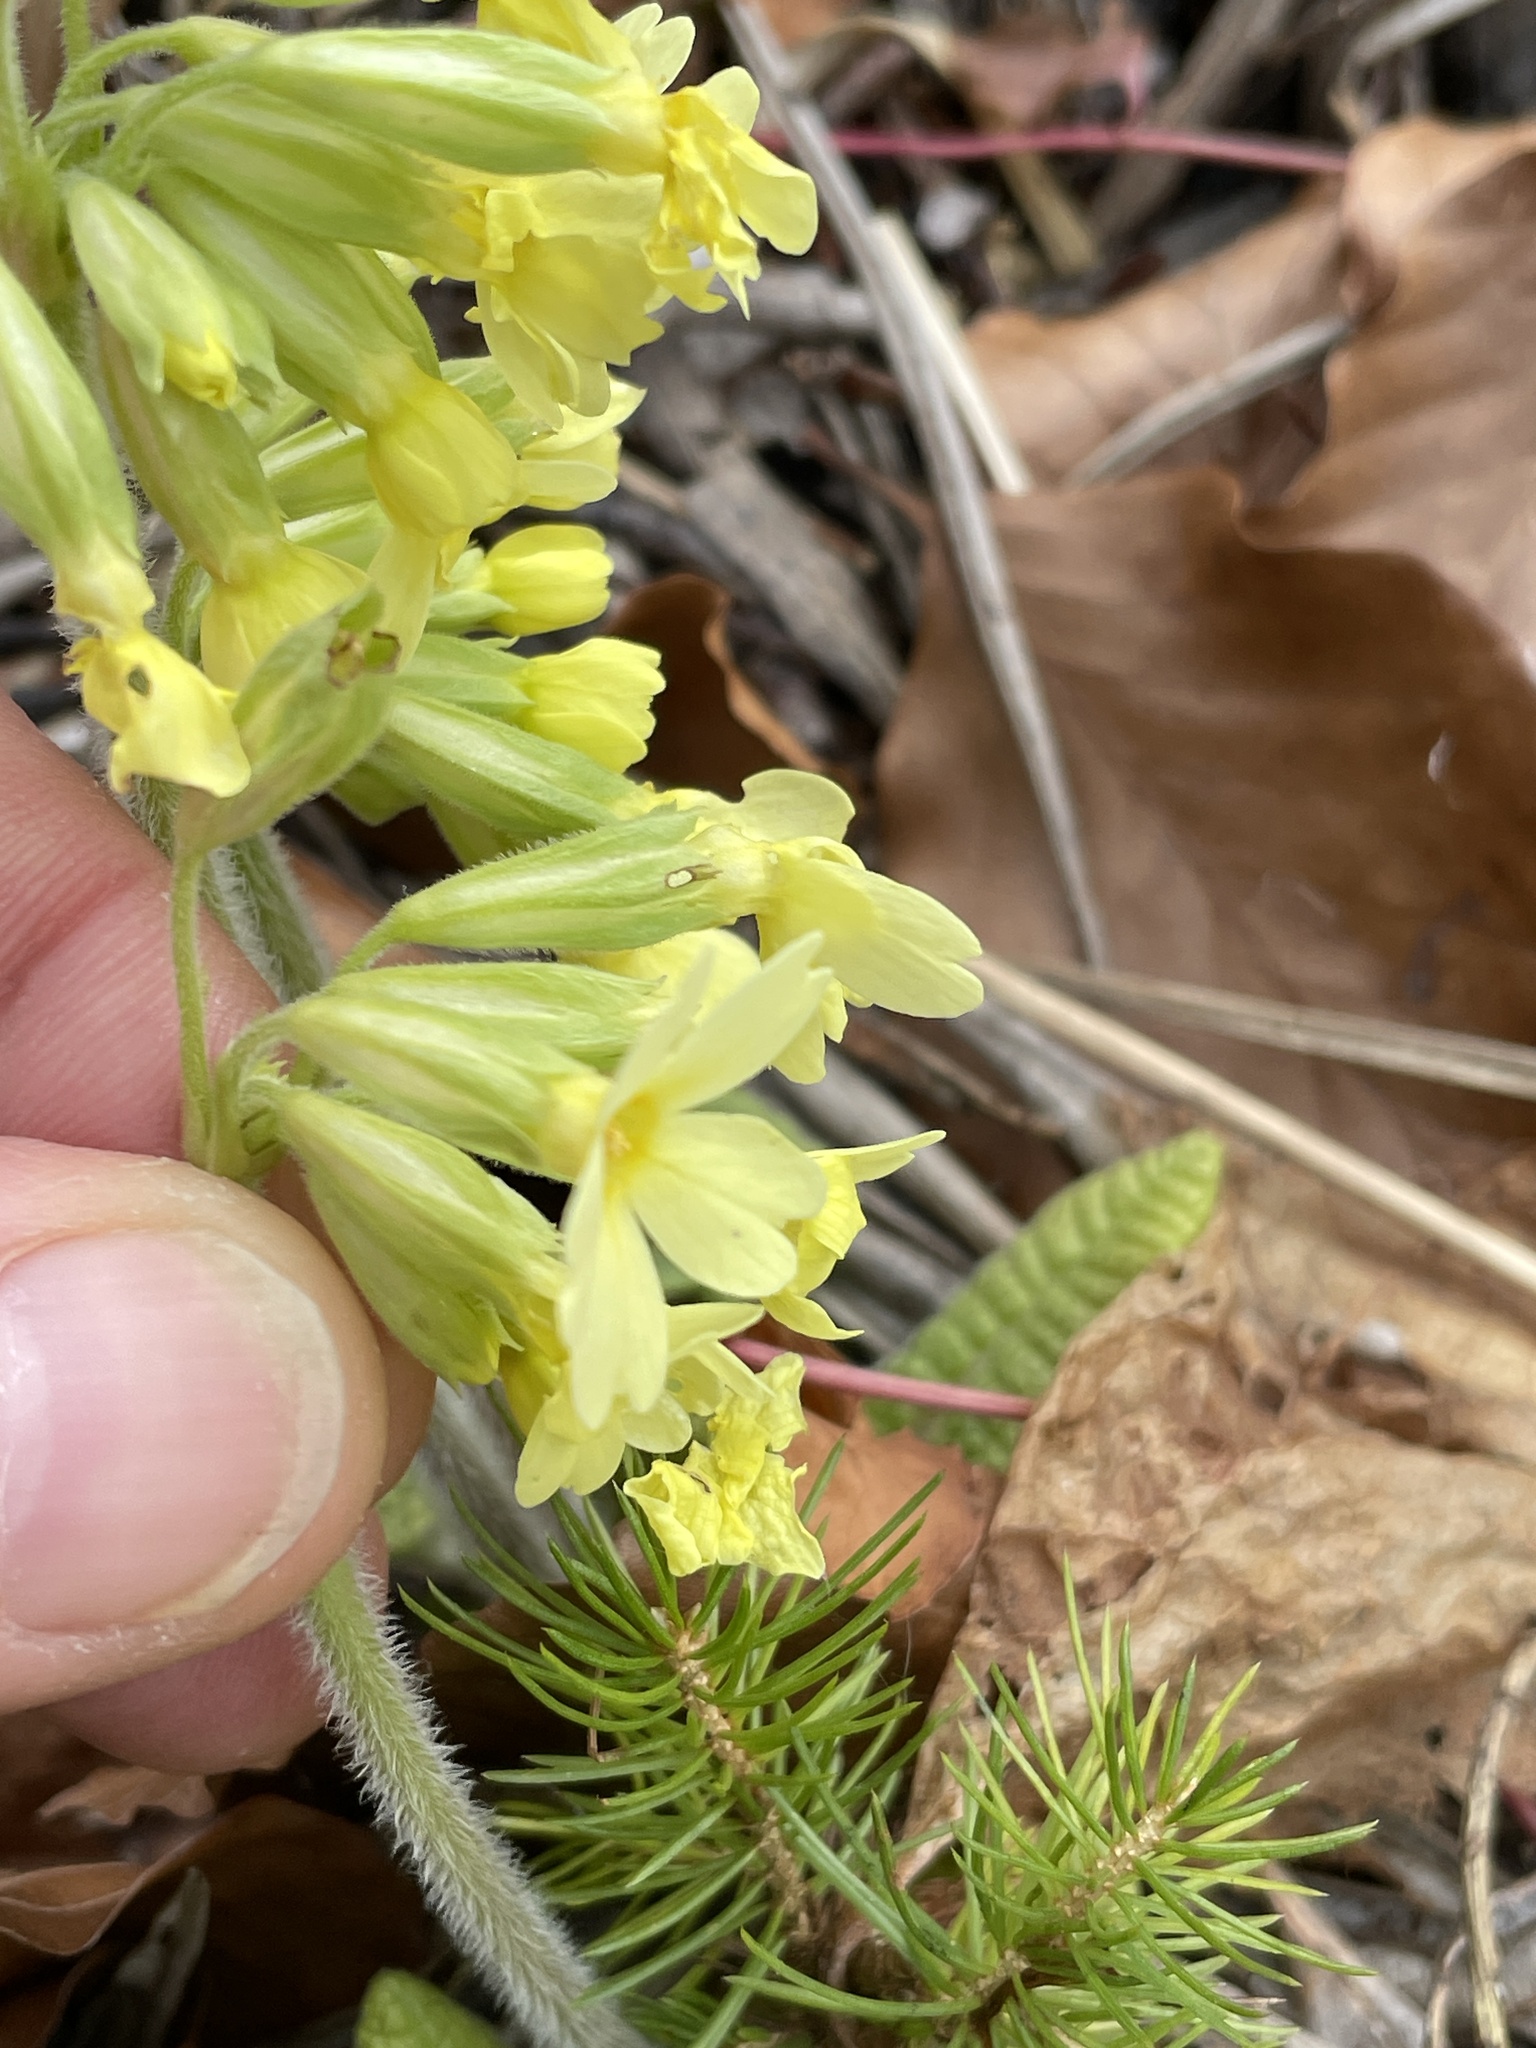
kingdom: Plantae
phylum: Tracheophyta
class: Magnoliopsida
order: Ericales
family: Primulaceae
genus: Primula
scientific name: Primula elatior
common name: Oxlip
